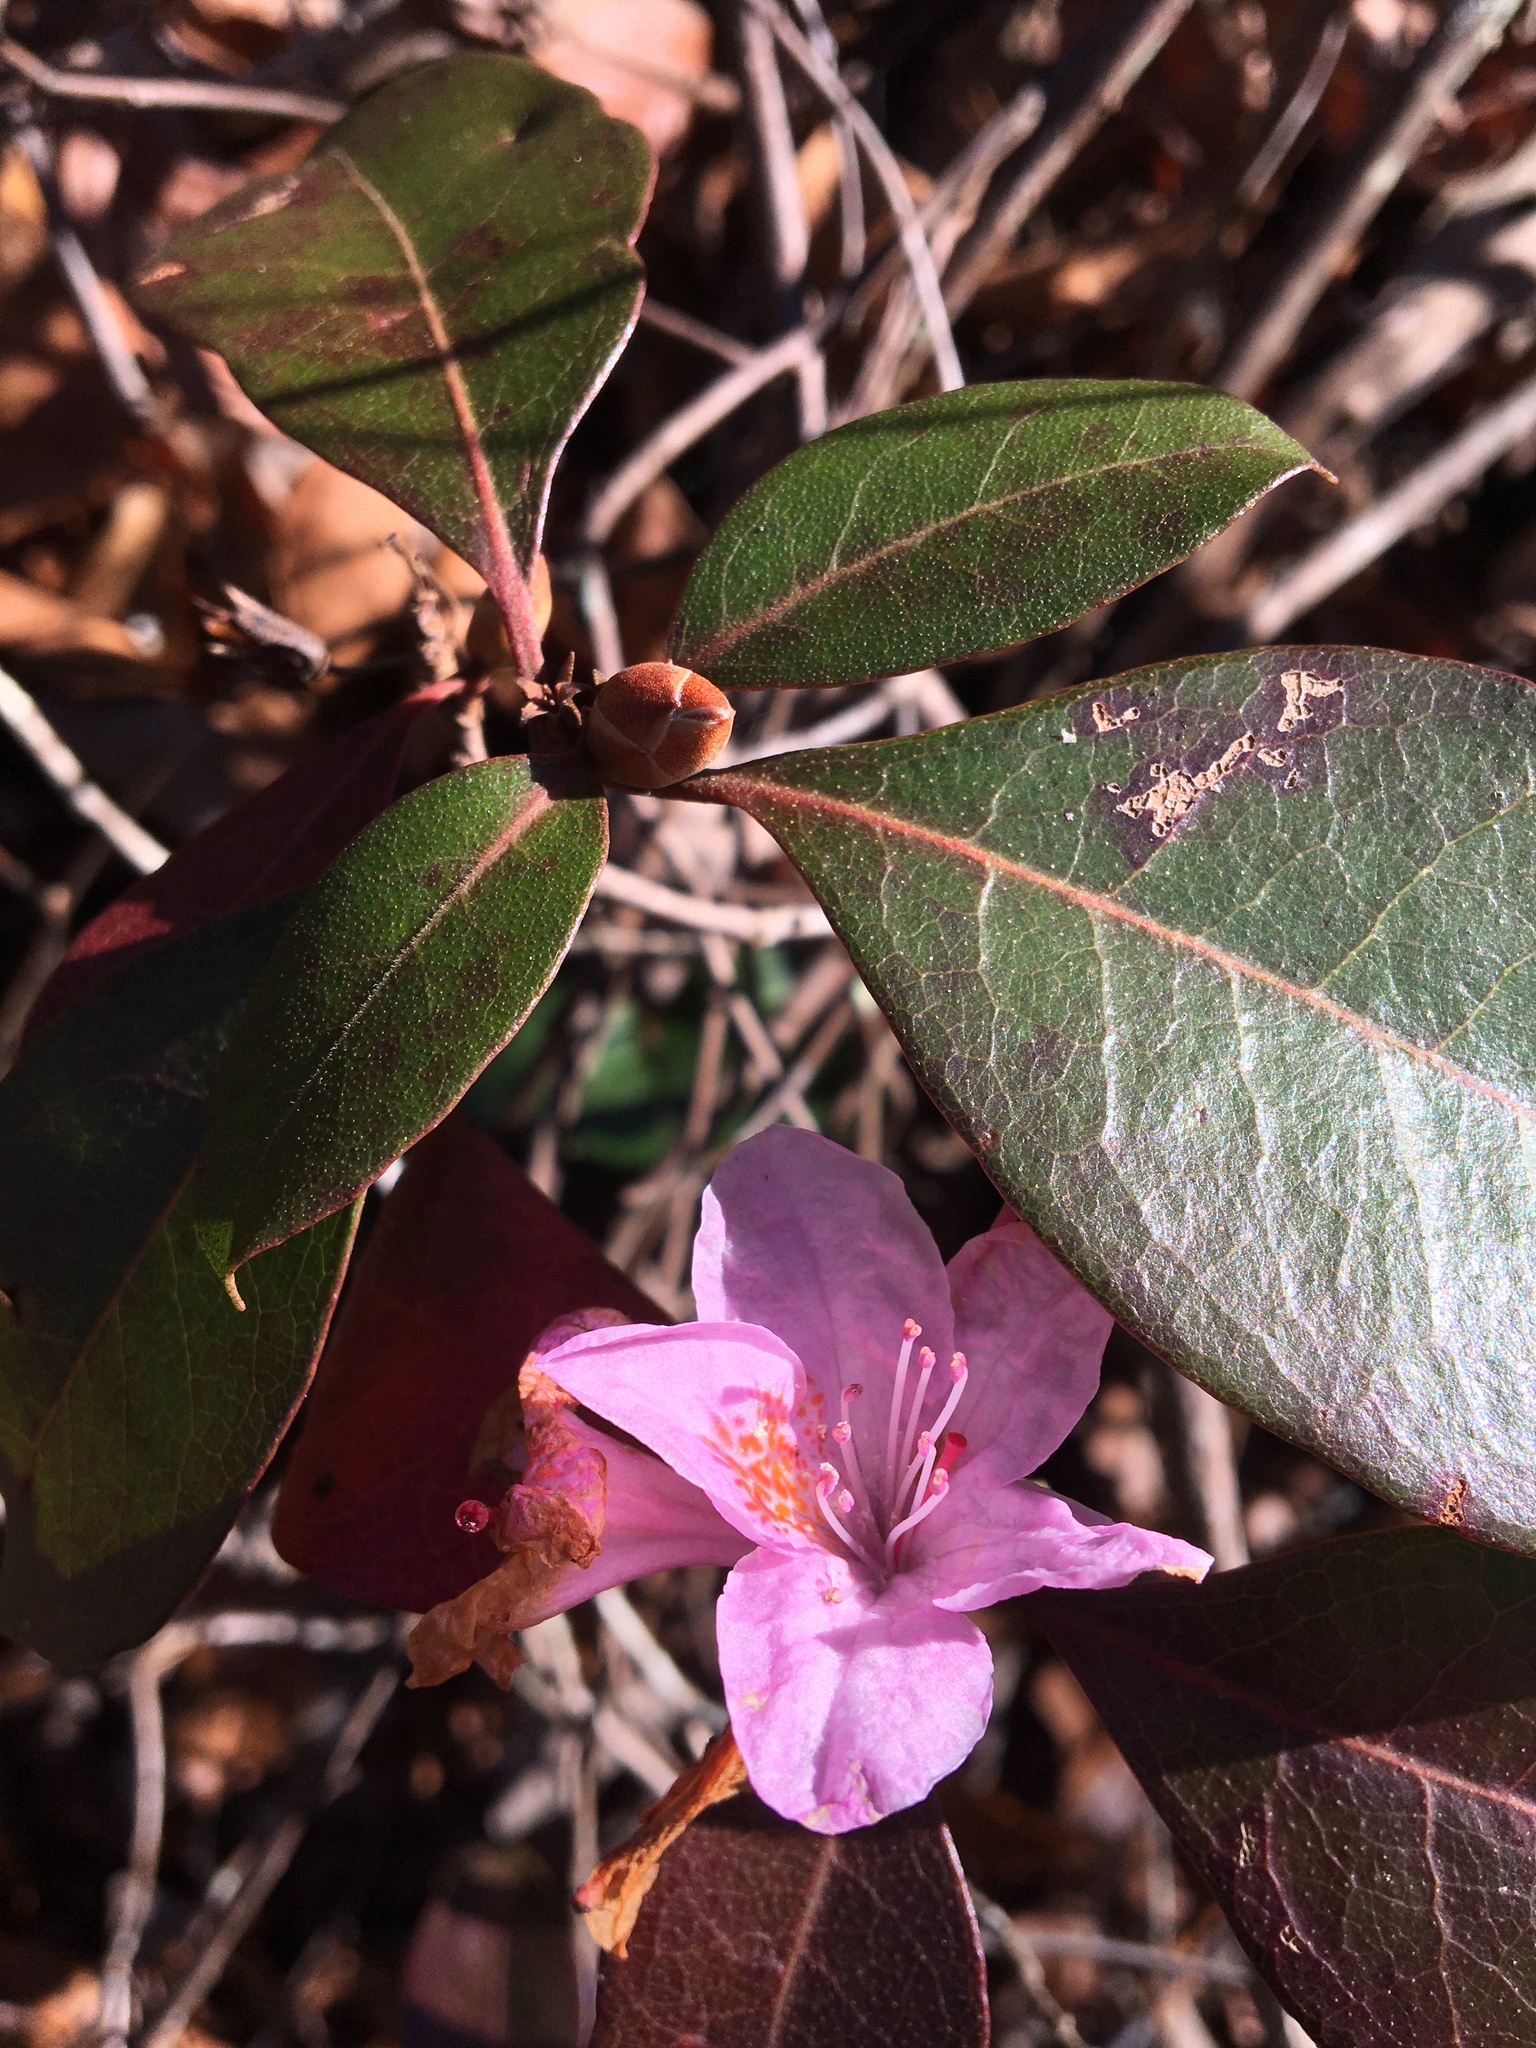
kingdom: Plantae
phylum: Tracheophyta
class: Magnoliopsida
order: Ericales
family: Ericaceae
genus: Rhododendron
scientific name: Rhododendron minus
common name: Piedmont rhododendron
